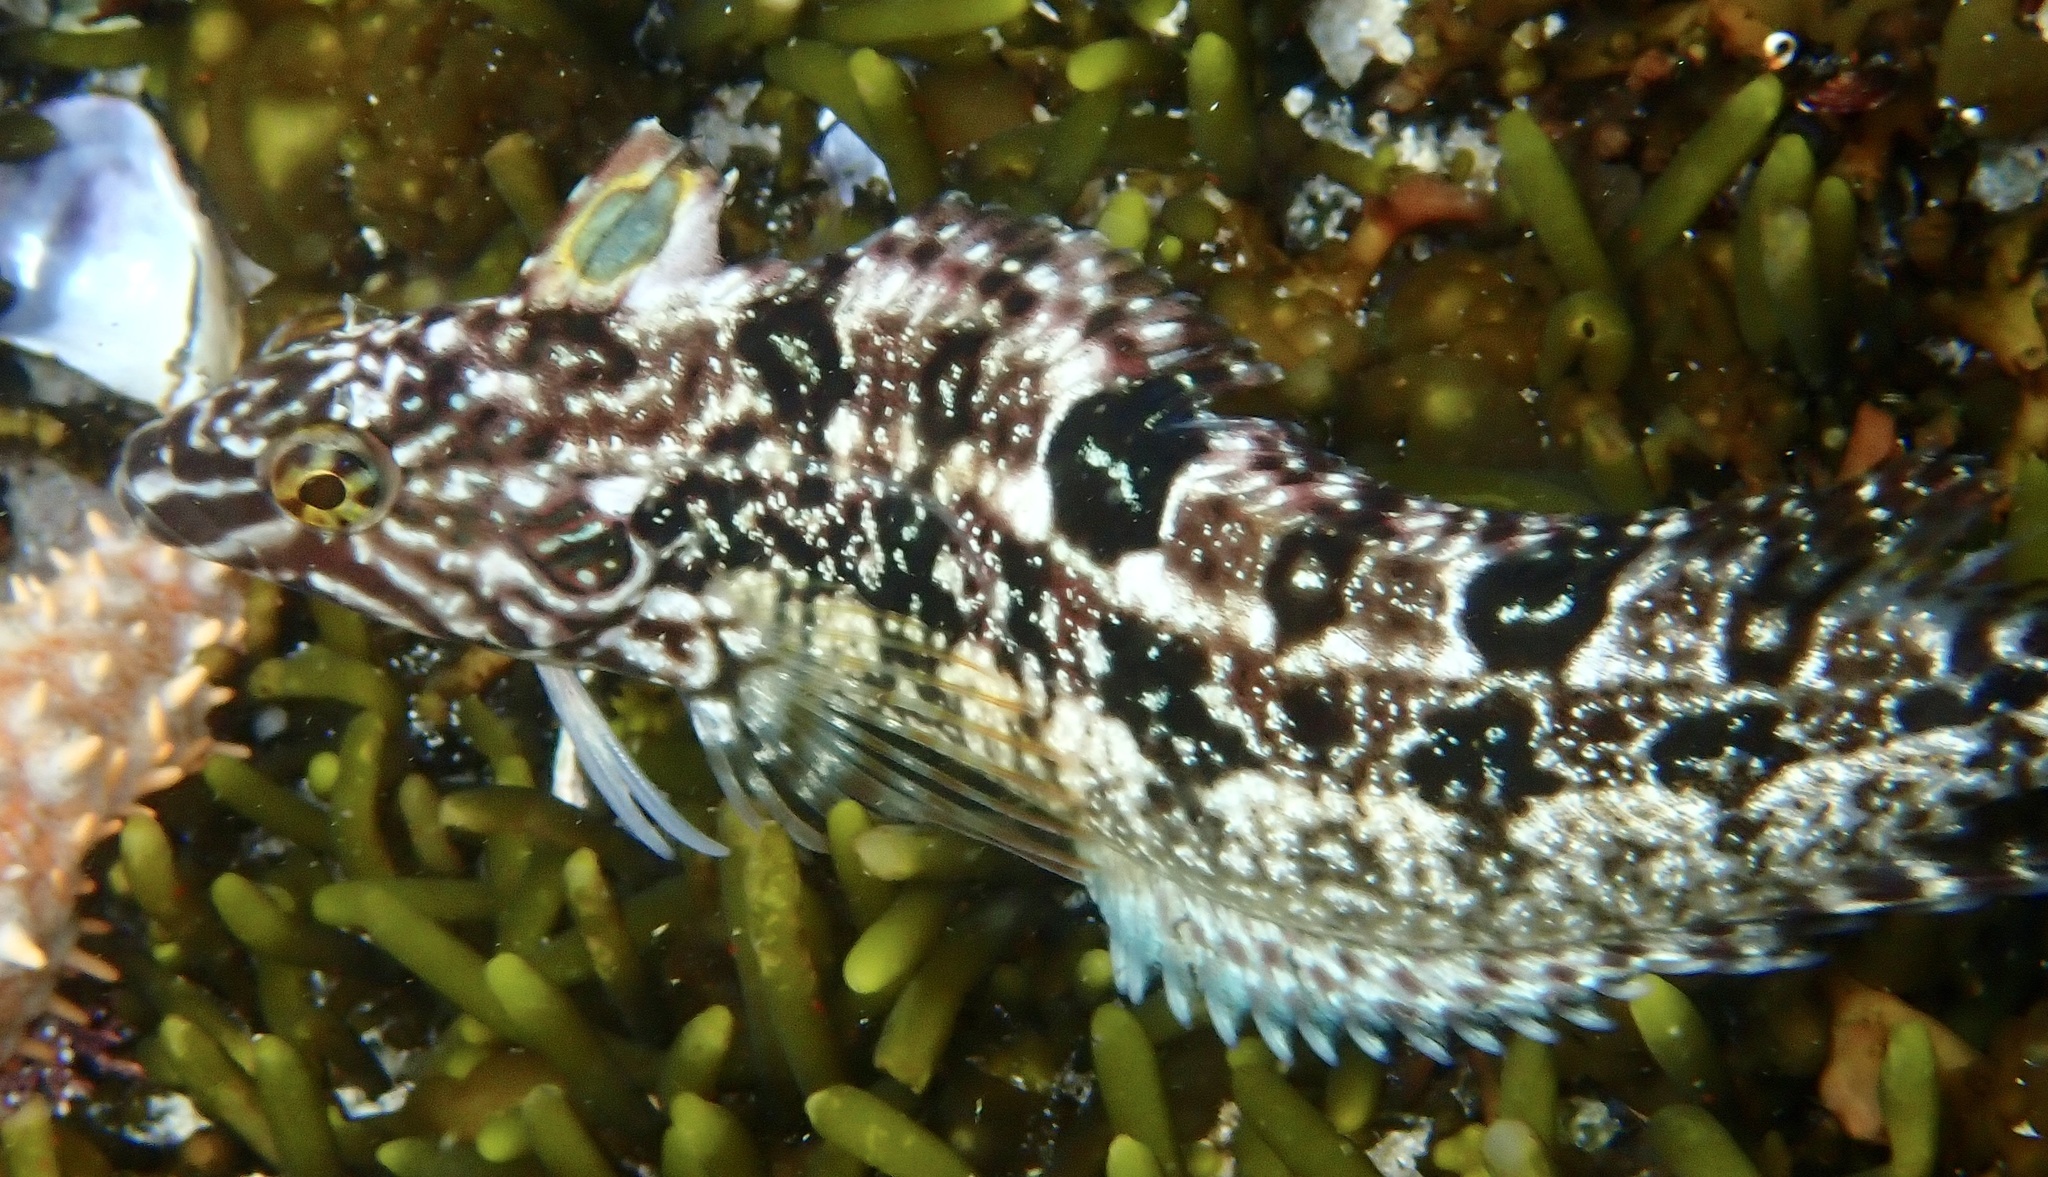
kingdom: Animalia
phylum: Chordata
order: Perciformes
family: Clinidae
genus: Clinus
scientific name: Clinus superciliosus
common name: Super klipfish
